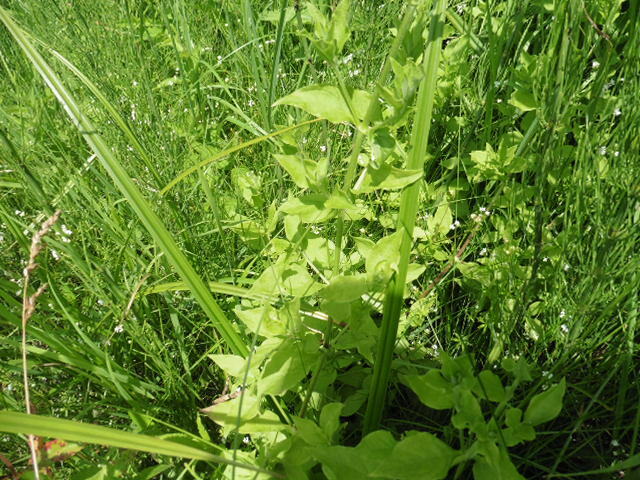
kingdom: Plantae
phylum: Tracheophyta
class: Magnoliopsida
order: Caryophyllales
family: Caryophyllaceae
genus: Stellaria
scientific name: Stellaria aquatica
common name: Water chickweed
